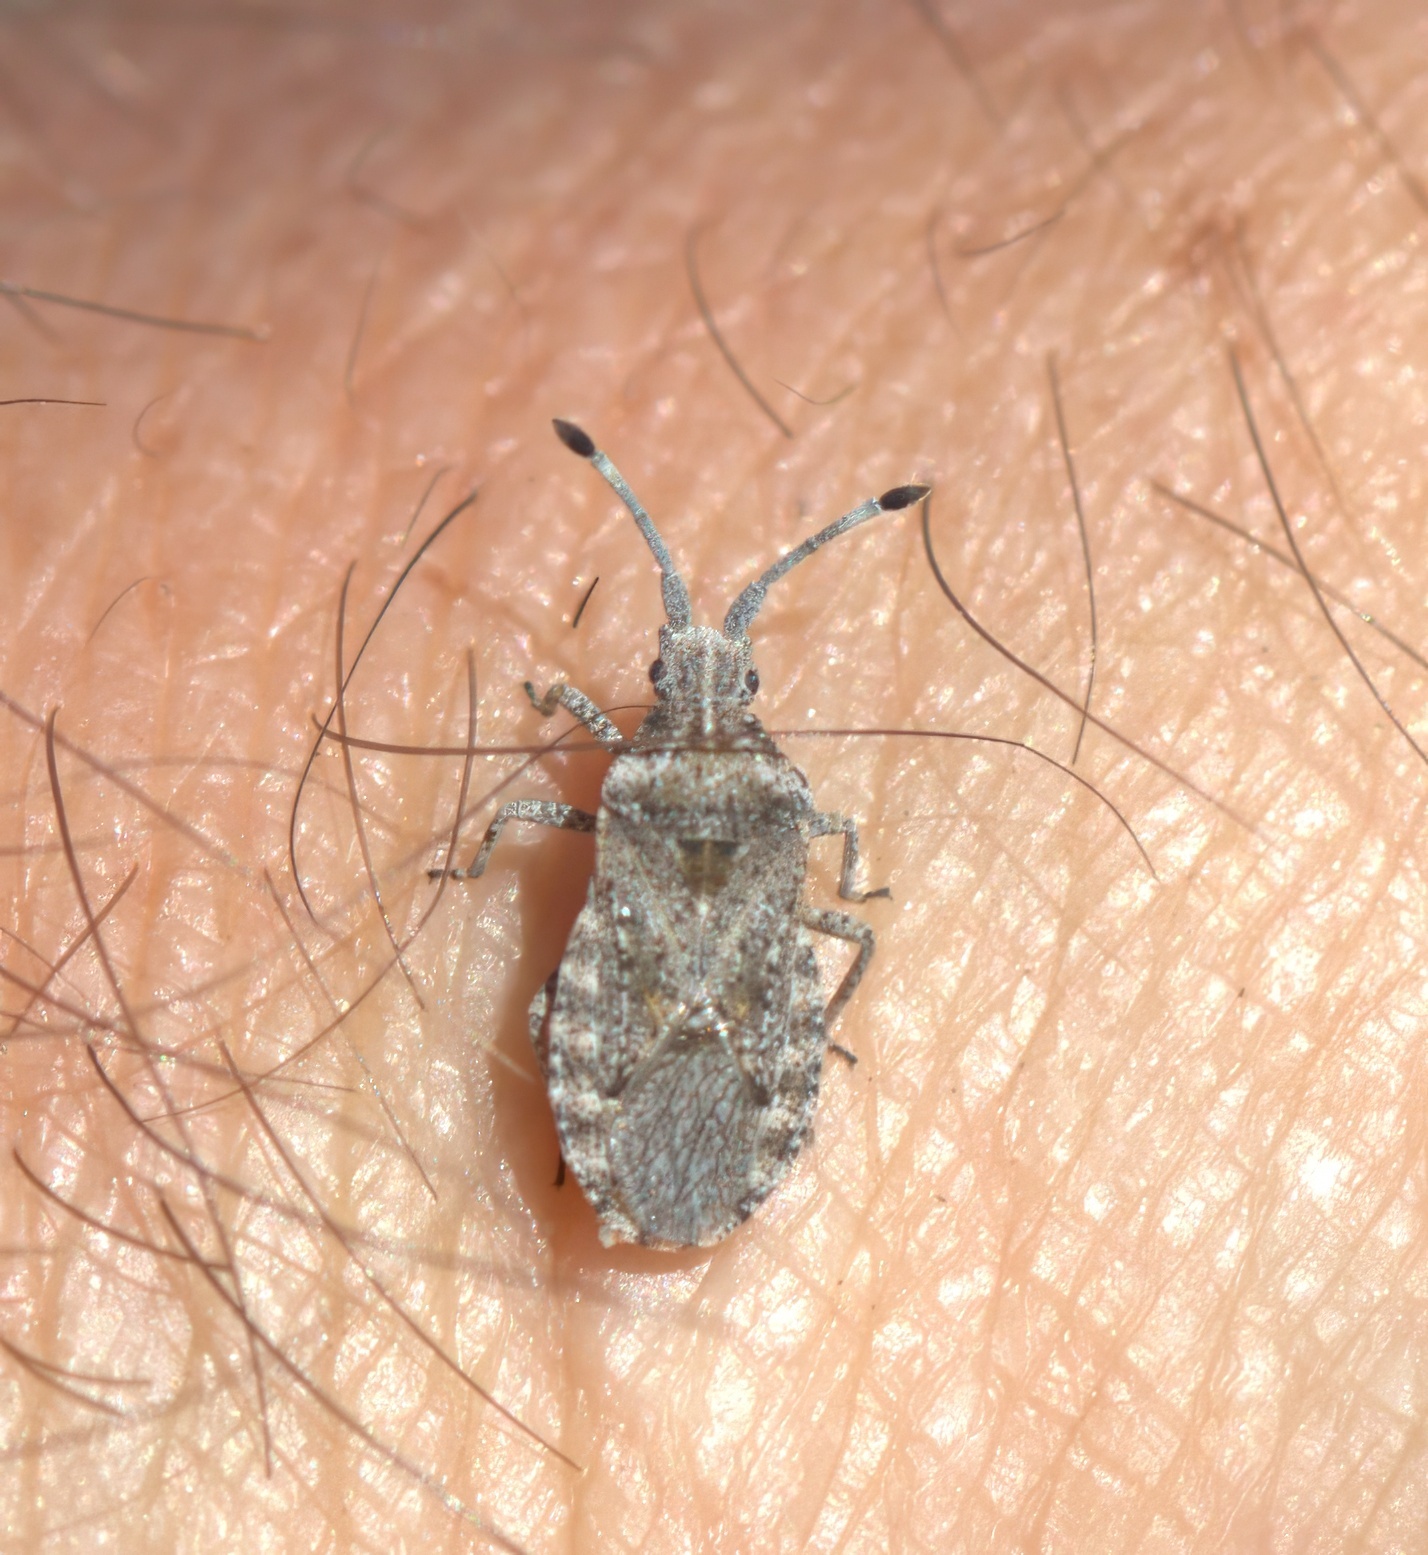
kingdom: Animalia
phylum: Arthropoda
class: Insecta
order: Hemiptera
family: Coreidae
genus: Scolopocerus
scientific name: Scolopocerus uhleri
